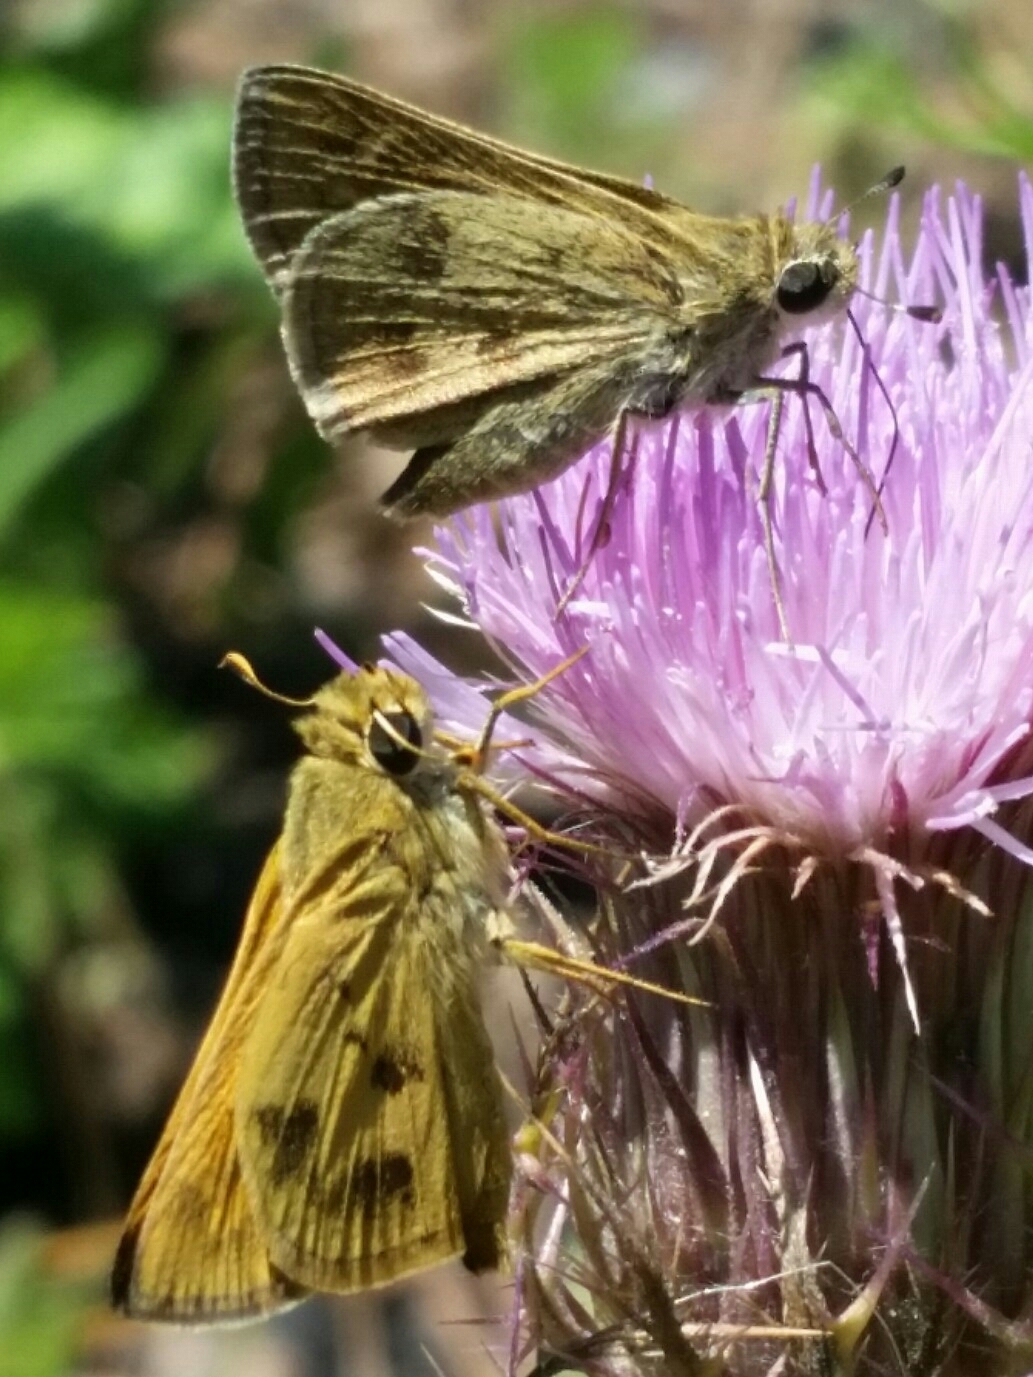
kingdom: Animalia
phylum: Arthropoda
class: Insecta
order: Lepidoptera
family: Hesperiidae
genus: Polites
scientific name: Polites vibex
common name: Whirlabout
